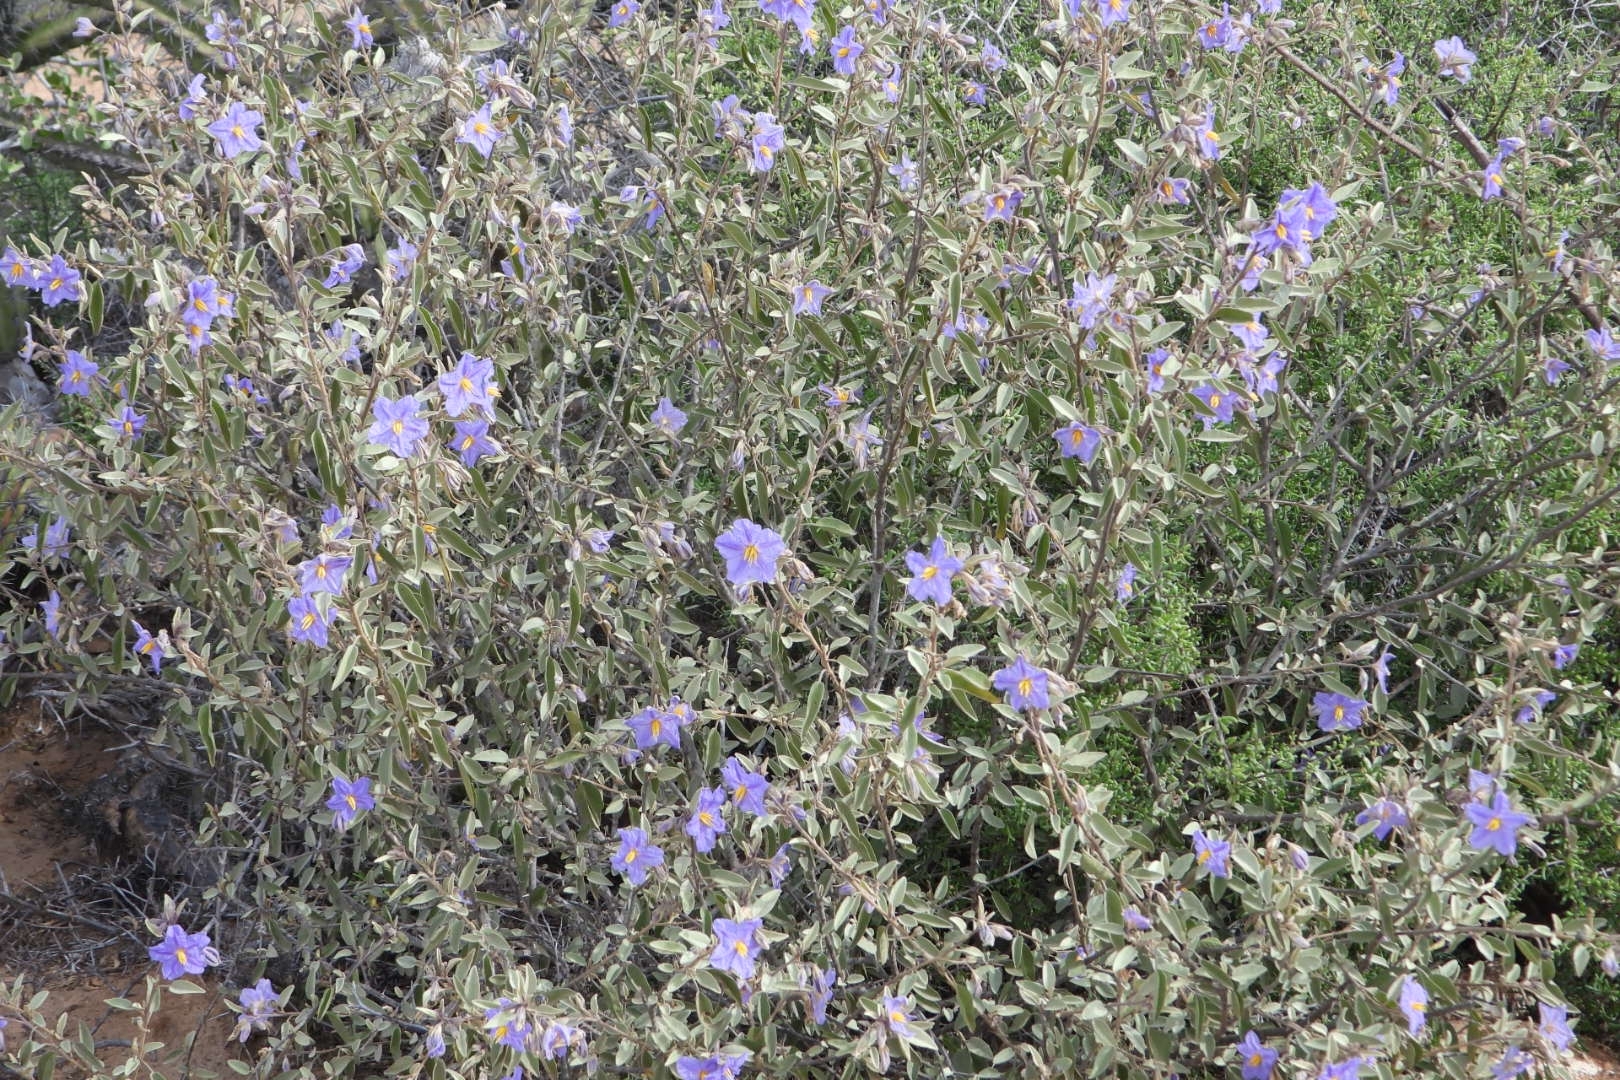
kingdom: Plantae
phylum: Tracheophyta
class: Magnoliopsida
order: Solanales
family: Solanaceae
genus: Solanum
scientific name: Solanum hindsianum
